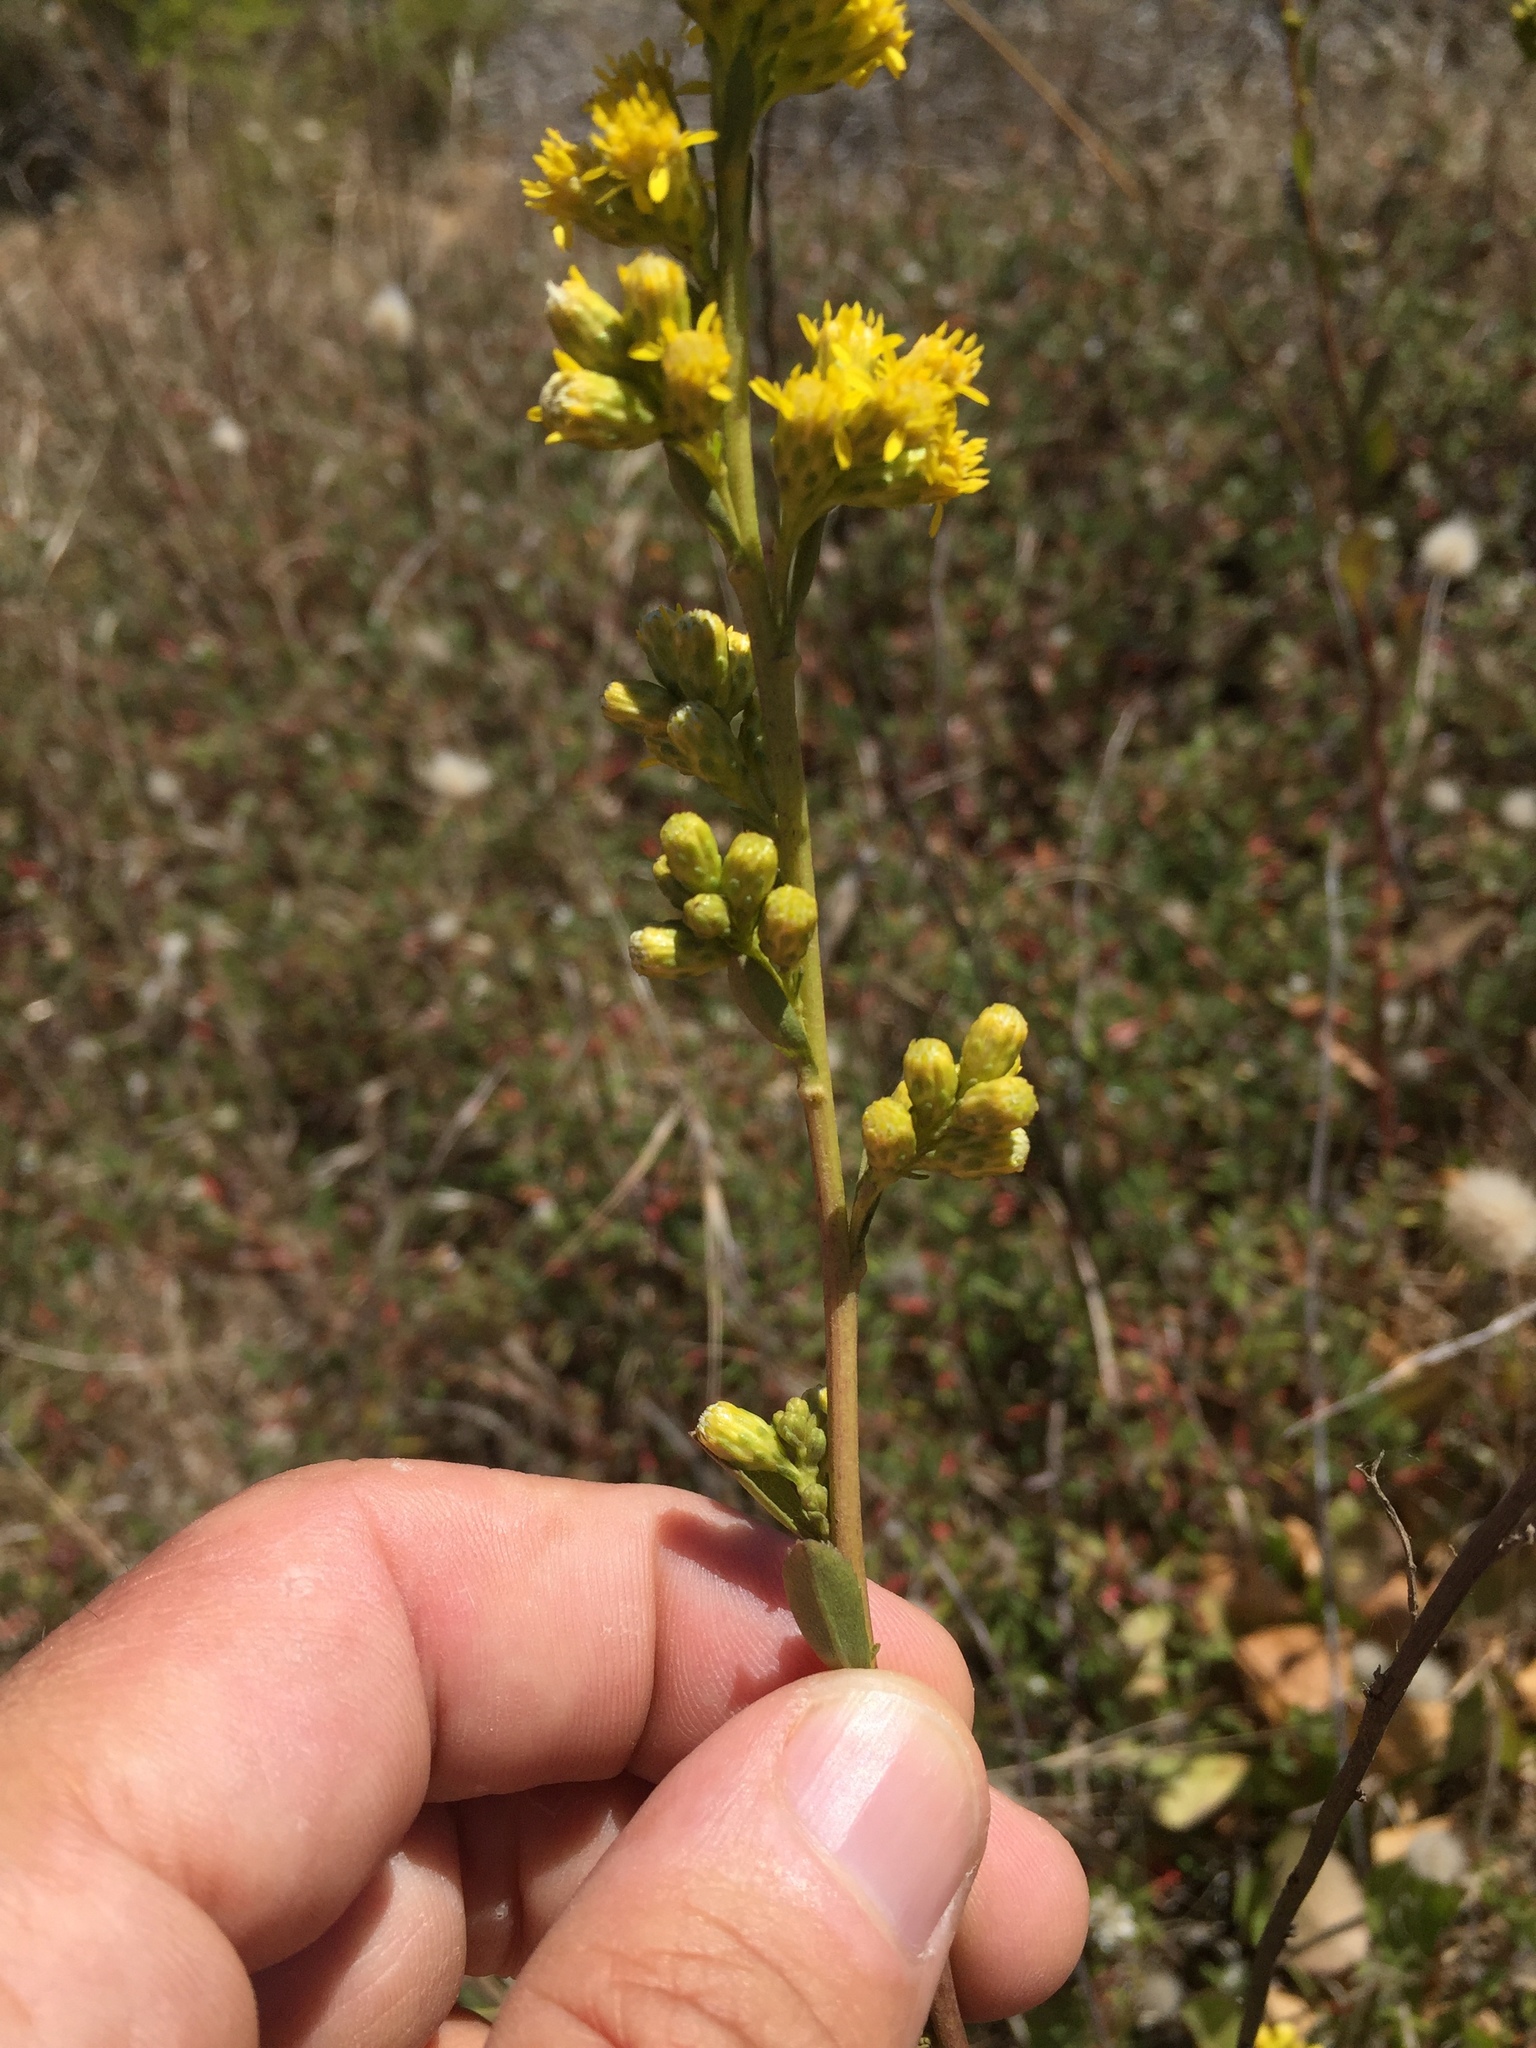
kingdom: Plantae
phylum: Tracheophyta
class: Magnoliopsida
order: Asterales
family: Asteraceae
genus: Solidago
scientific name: Solidago spathulata
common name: Coast goldenrod
